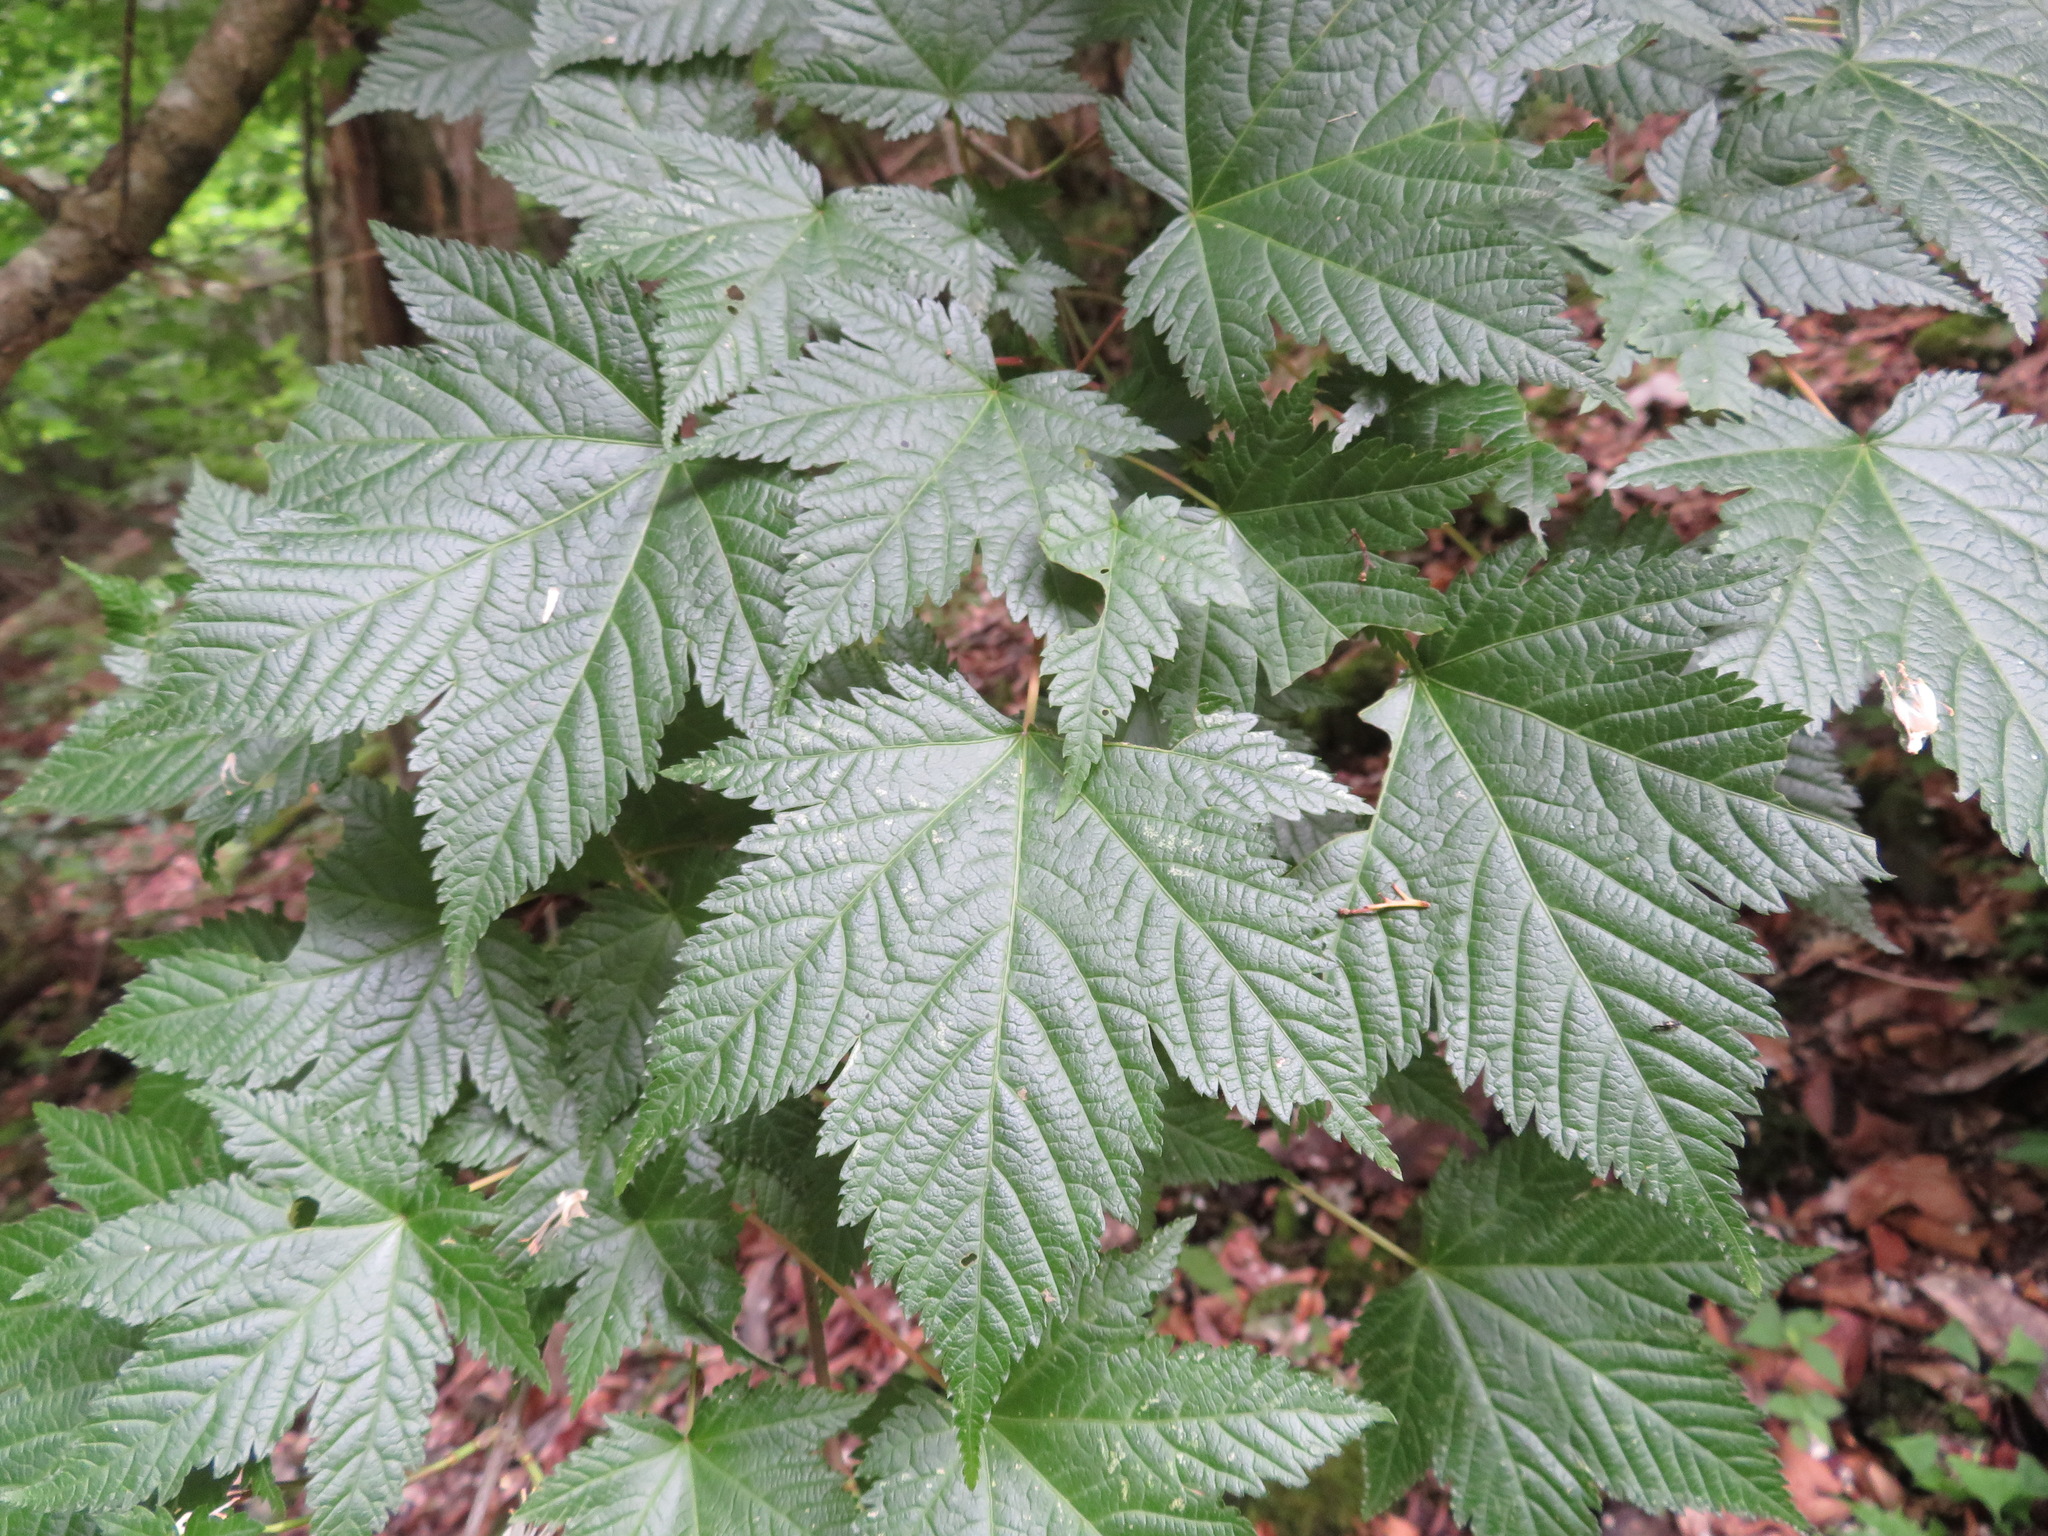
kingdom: Plantae
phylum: Tracheophyta
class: Magnoliopsida
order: Sapindales
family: Sapindaceae
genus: Acer
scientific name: Acer argutum
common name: Pointed-leaf maple
